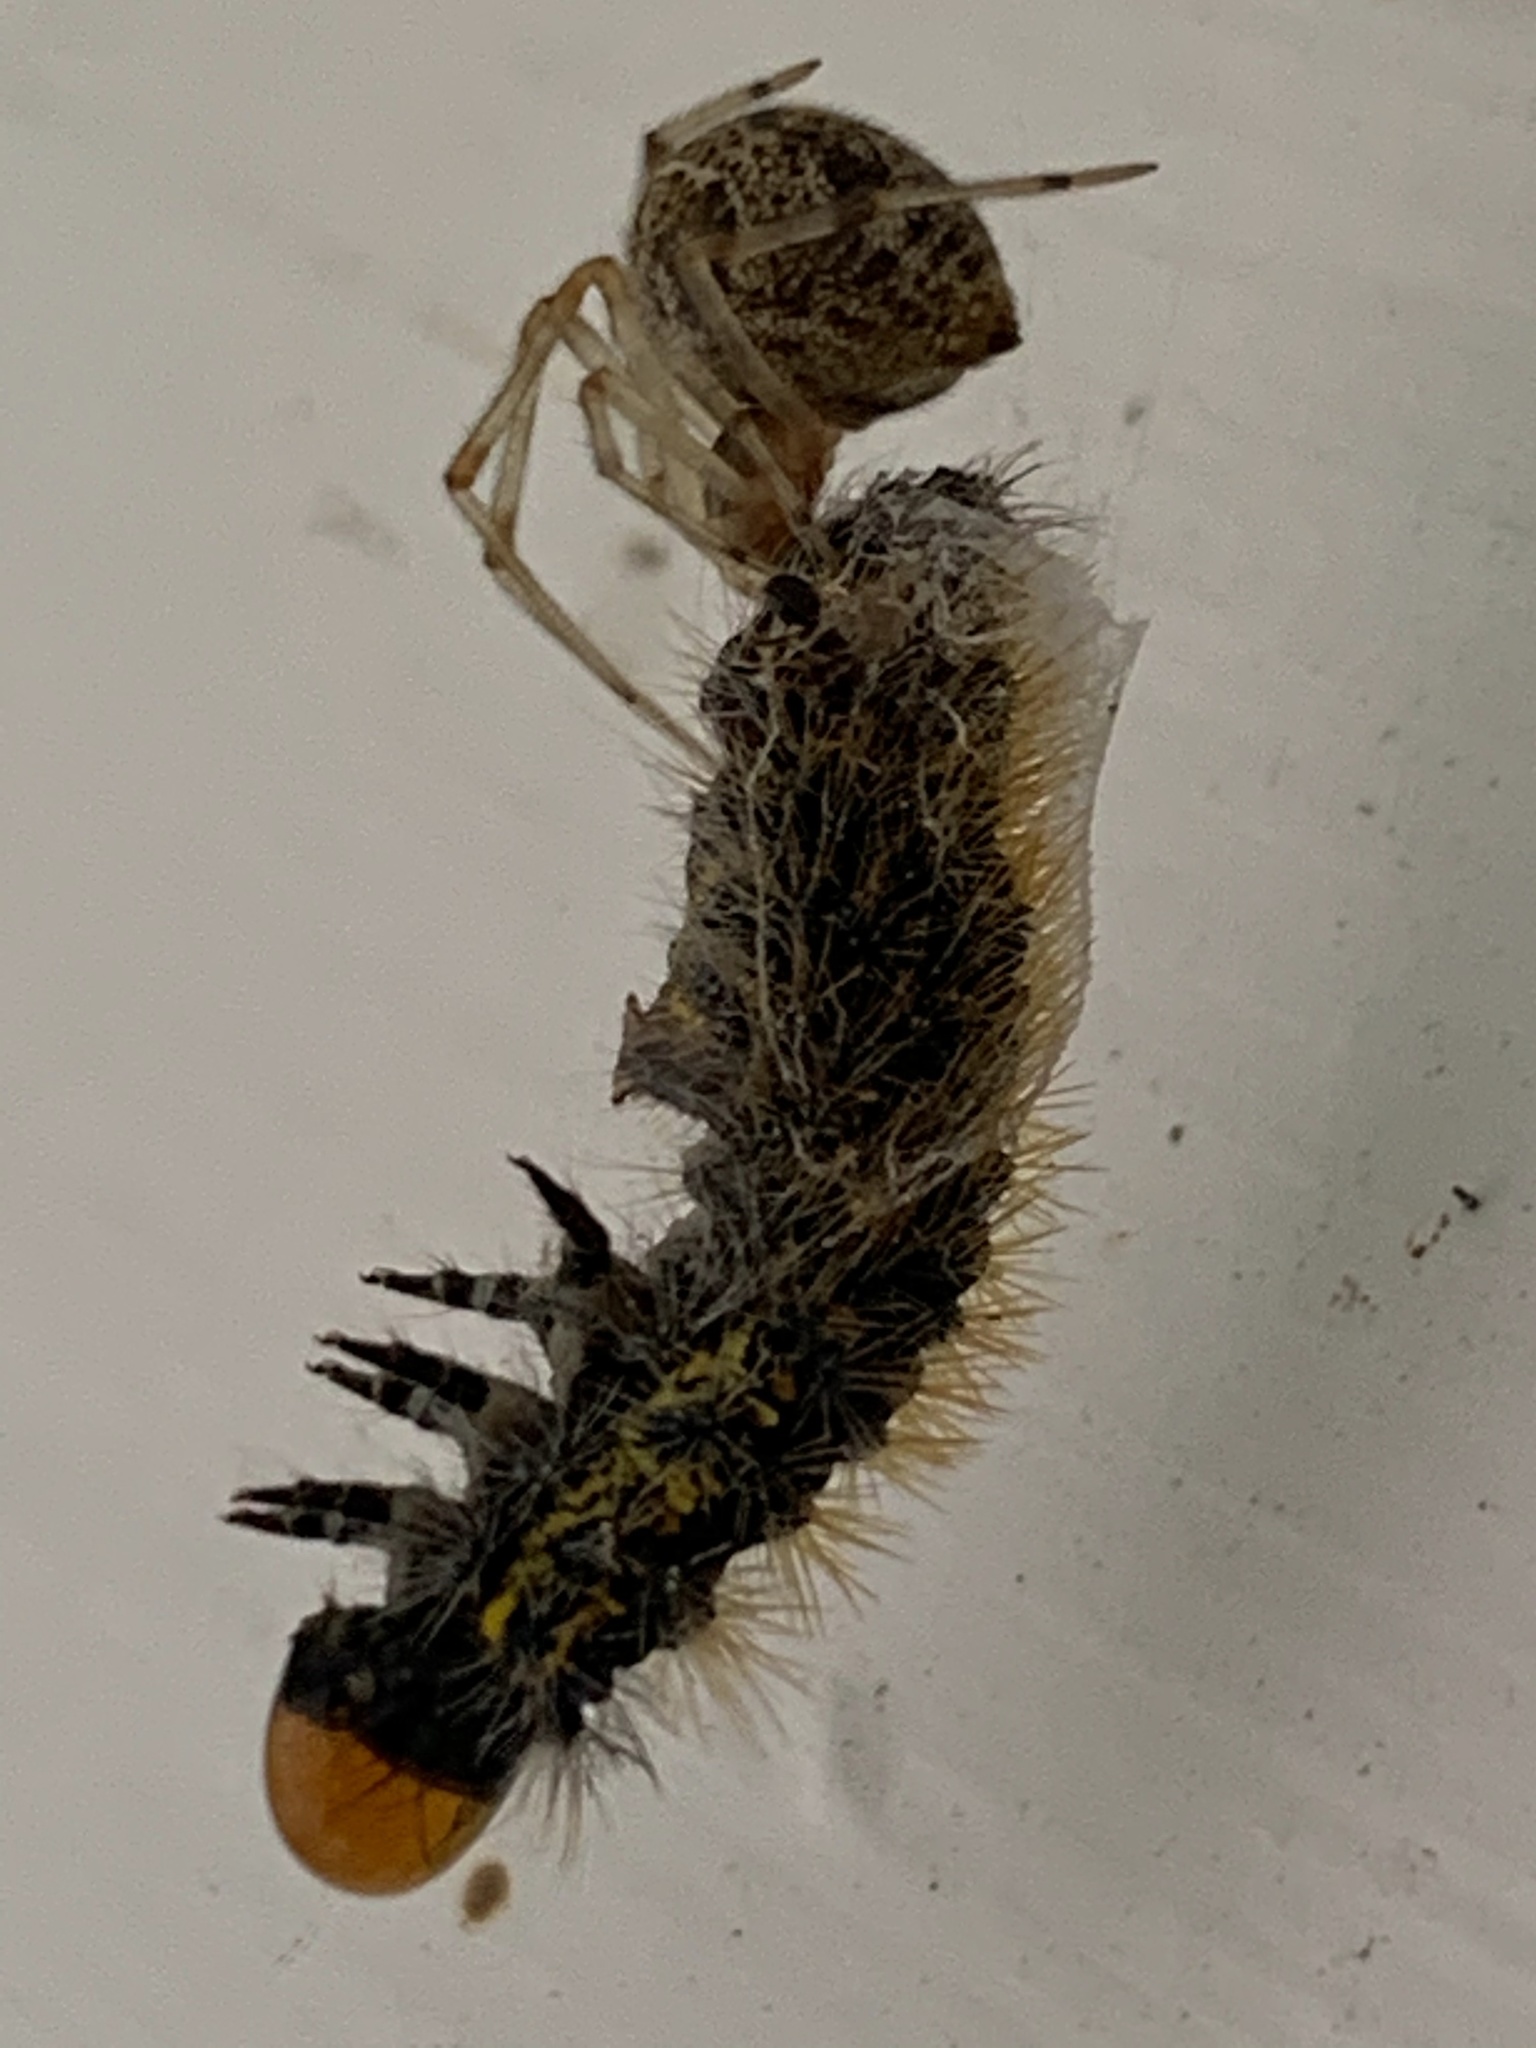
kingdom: Animalia
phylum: Arthropoda
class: Insecta
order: Lepidoptera
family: Noctuidae
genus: Acronicta
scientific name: Acronicta oblinita
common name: Smeared dagger
